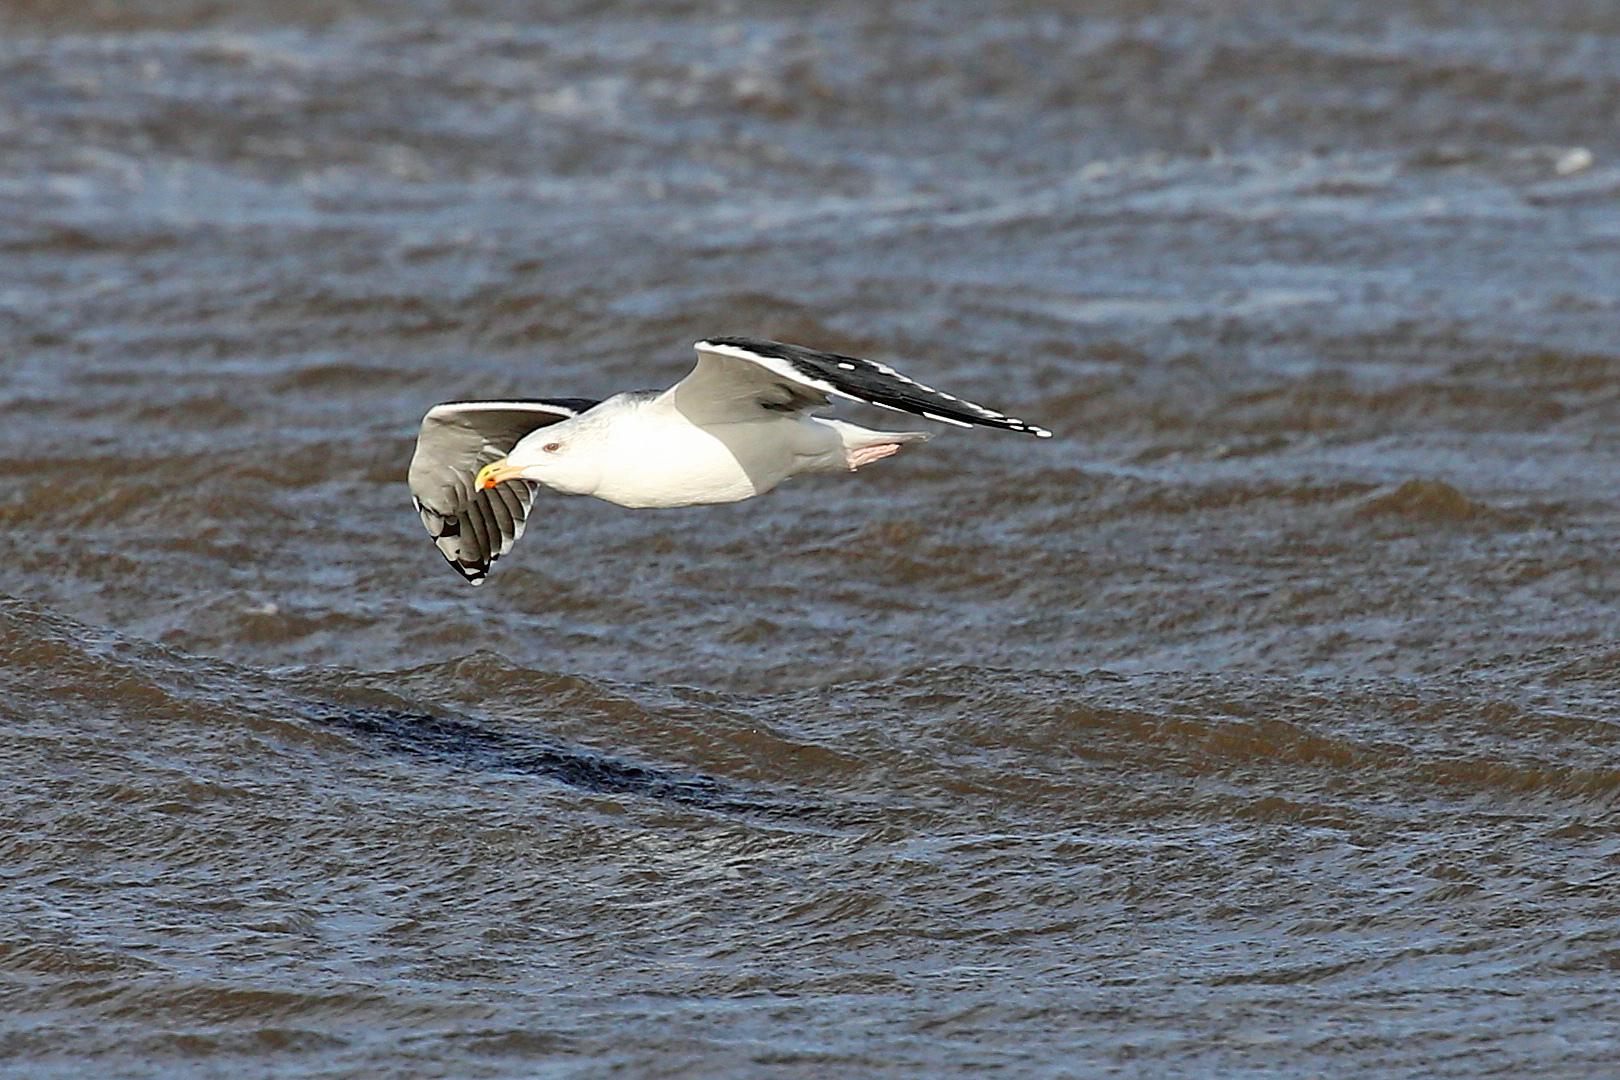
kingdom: Animalia
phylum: Chordata
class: Aves
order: Charadriiformes
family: Laridae
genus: Larus
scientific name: Larus marinus
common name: Great black-backed gull
